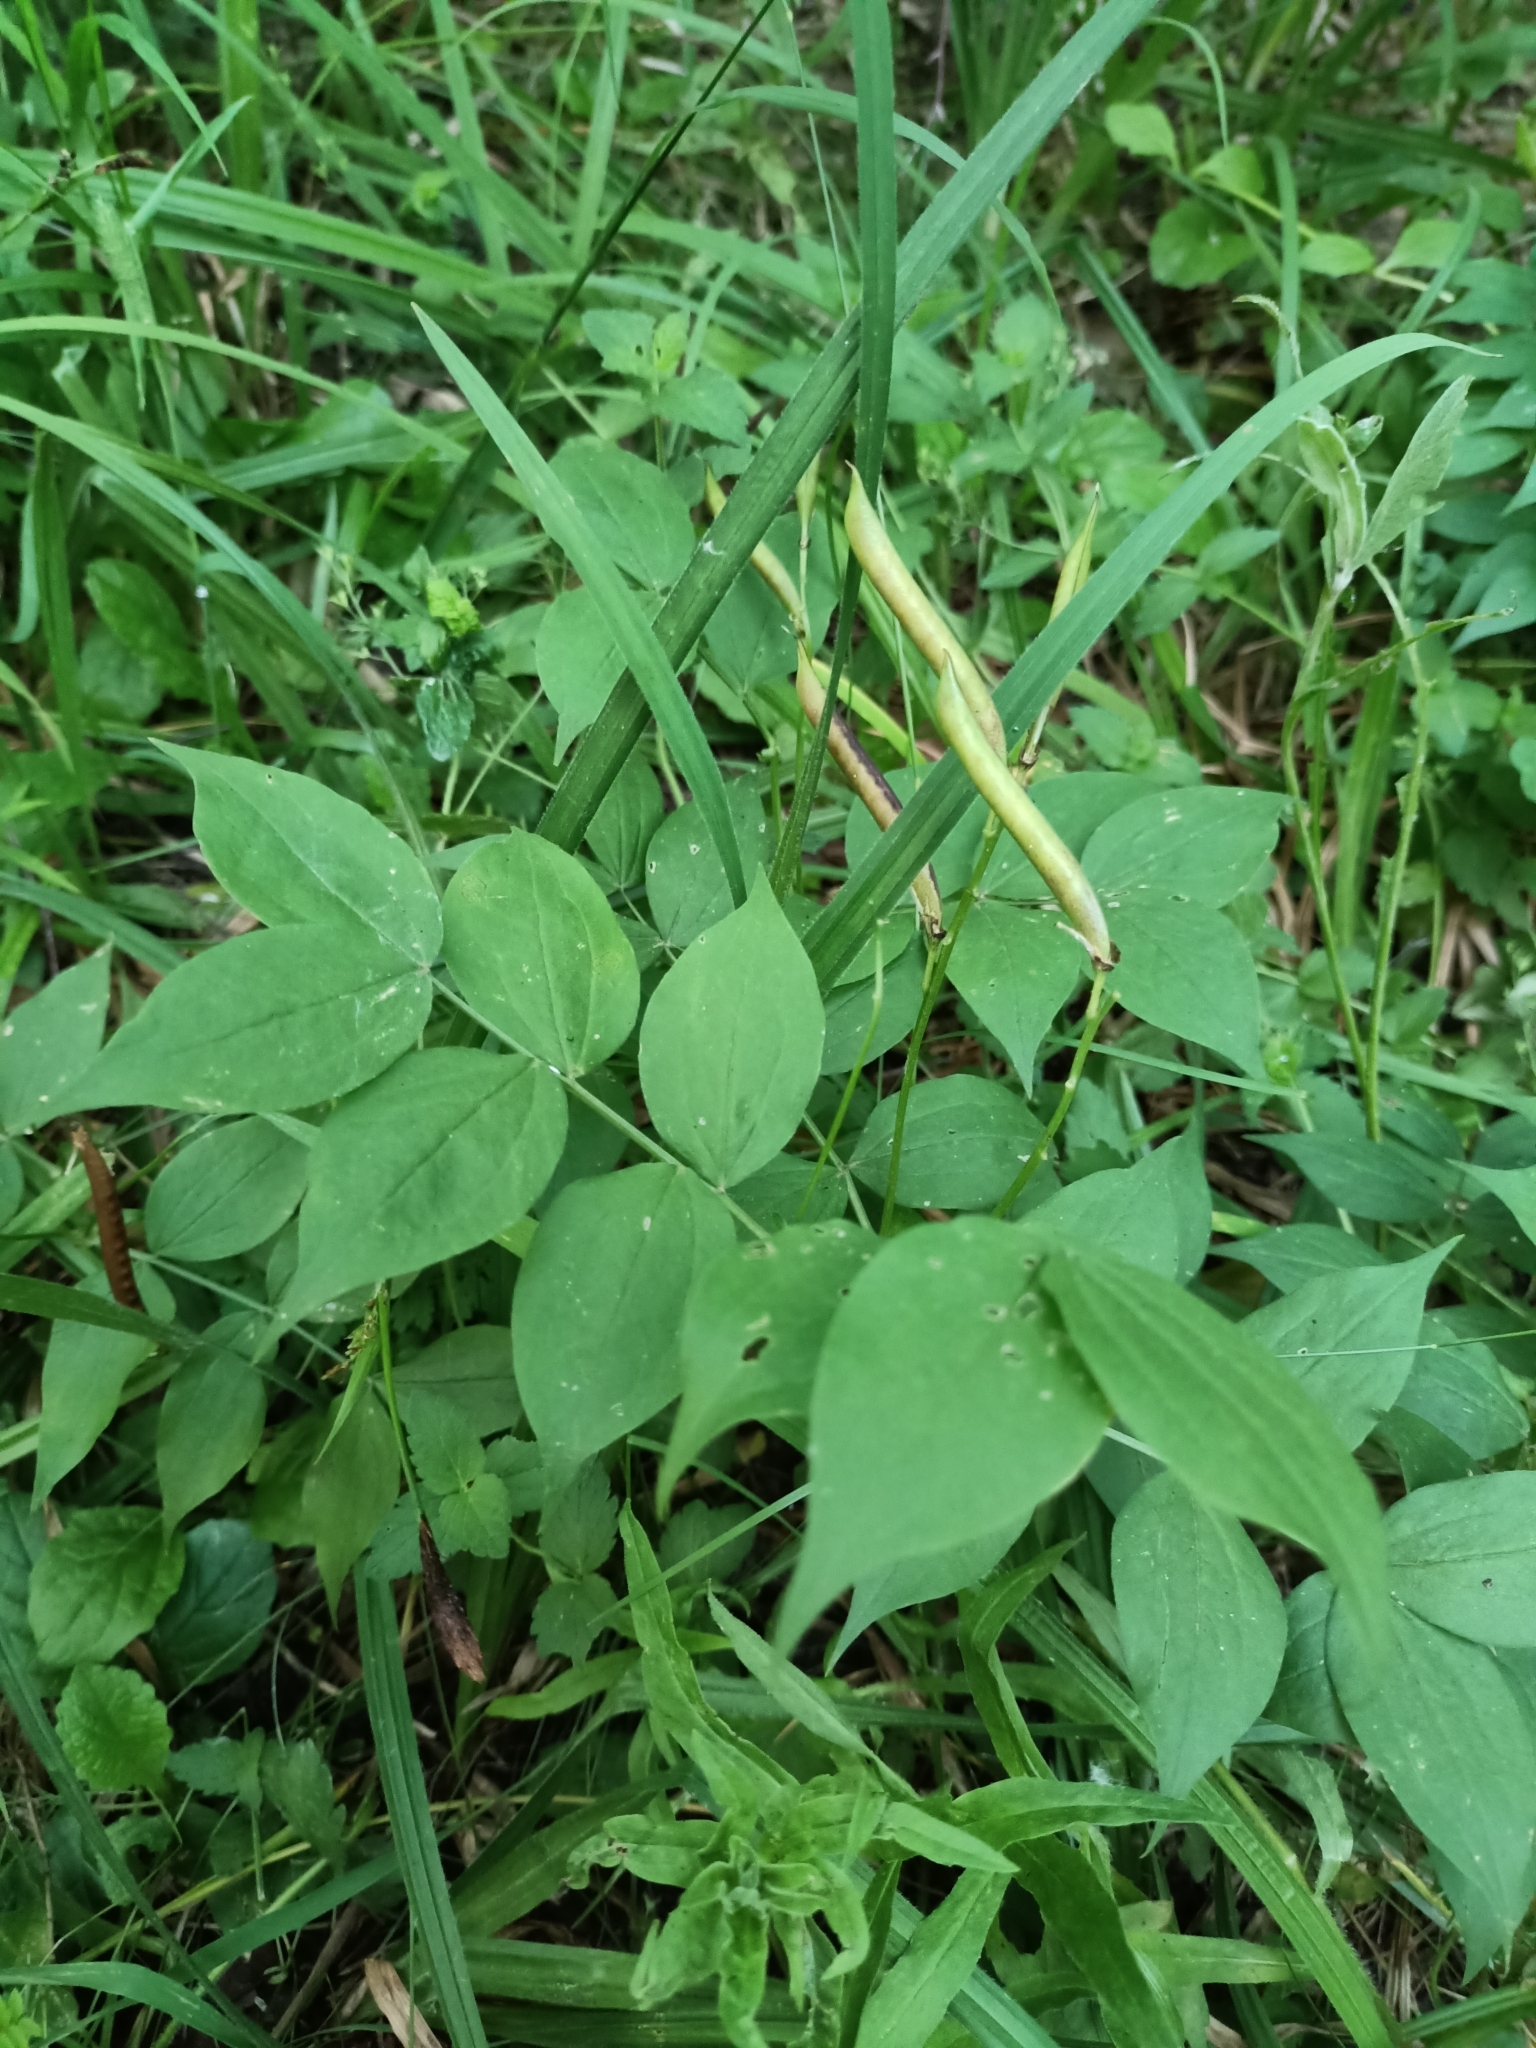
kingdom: Plantae
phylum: Tracheophyta
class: Magnoliopsida
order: Fabales
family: Fabaceae
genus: Lathyrus
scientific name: Lathyrus vernus
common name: Spring pea
